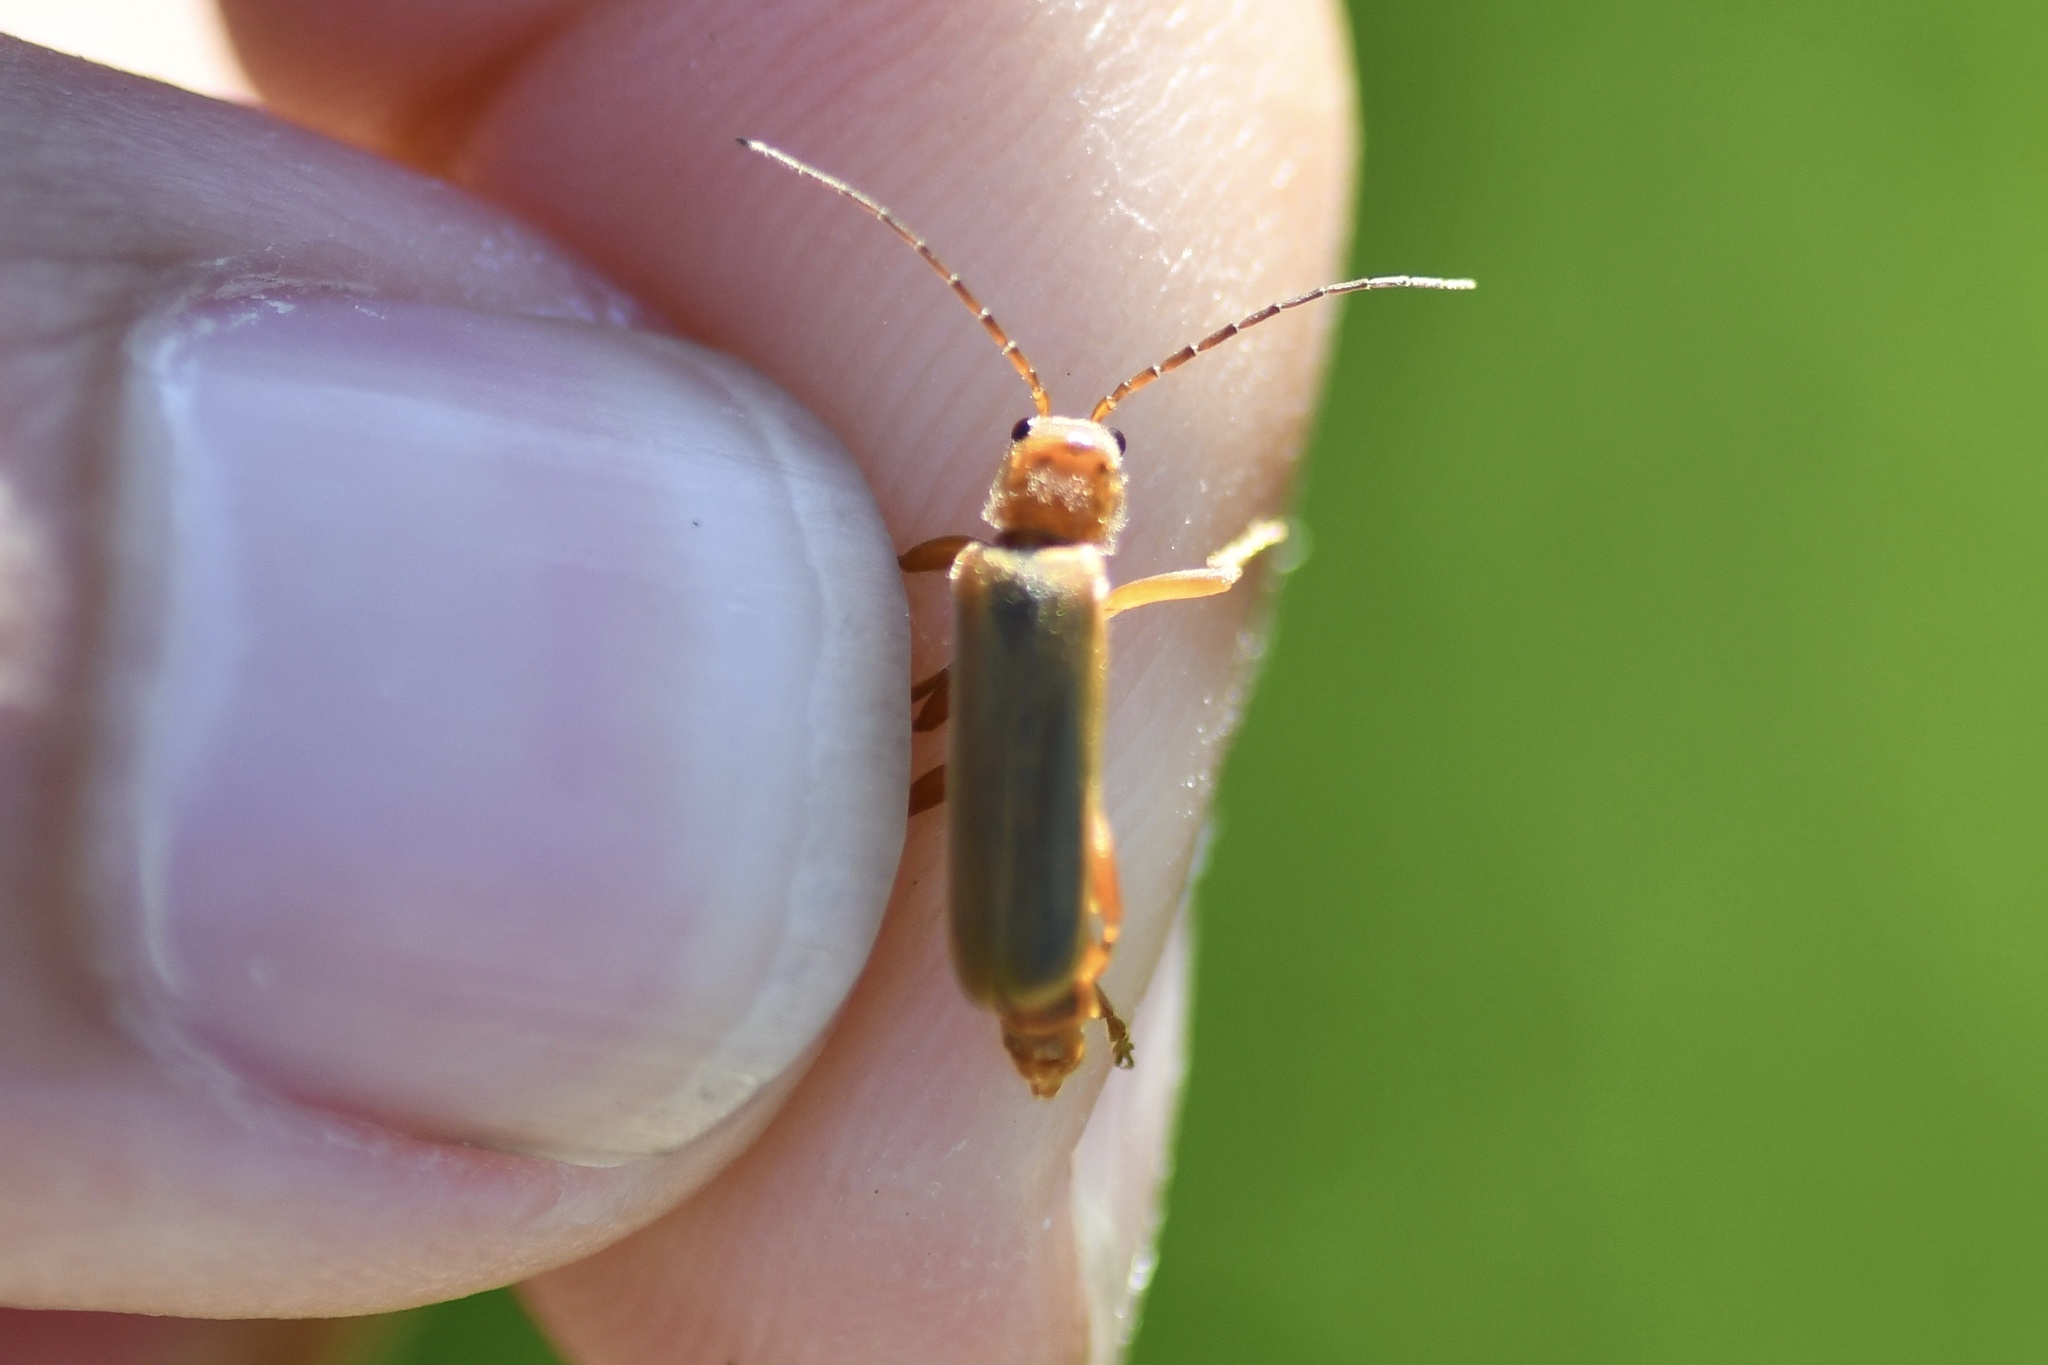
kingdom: Animalia
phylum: Arthropoda
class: Insecta
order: Coleoptera
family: Cantharidae
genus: Cantharis
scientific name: Cantharis rufa
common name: Red-spotted soldier beetle
